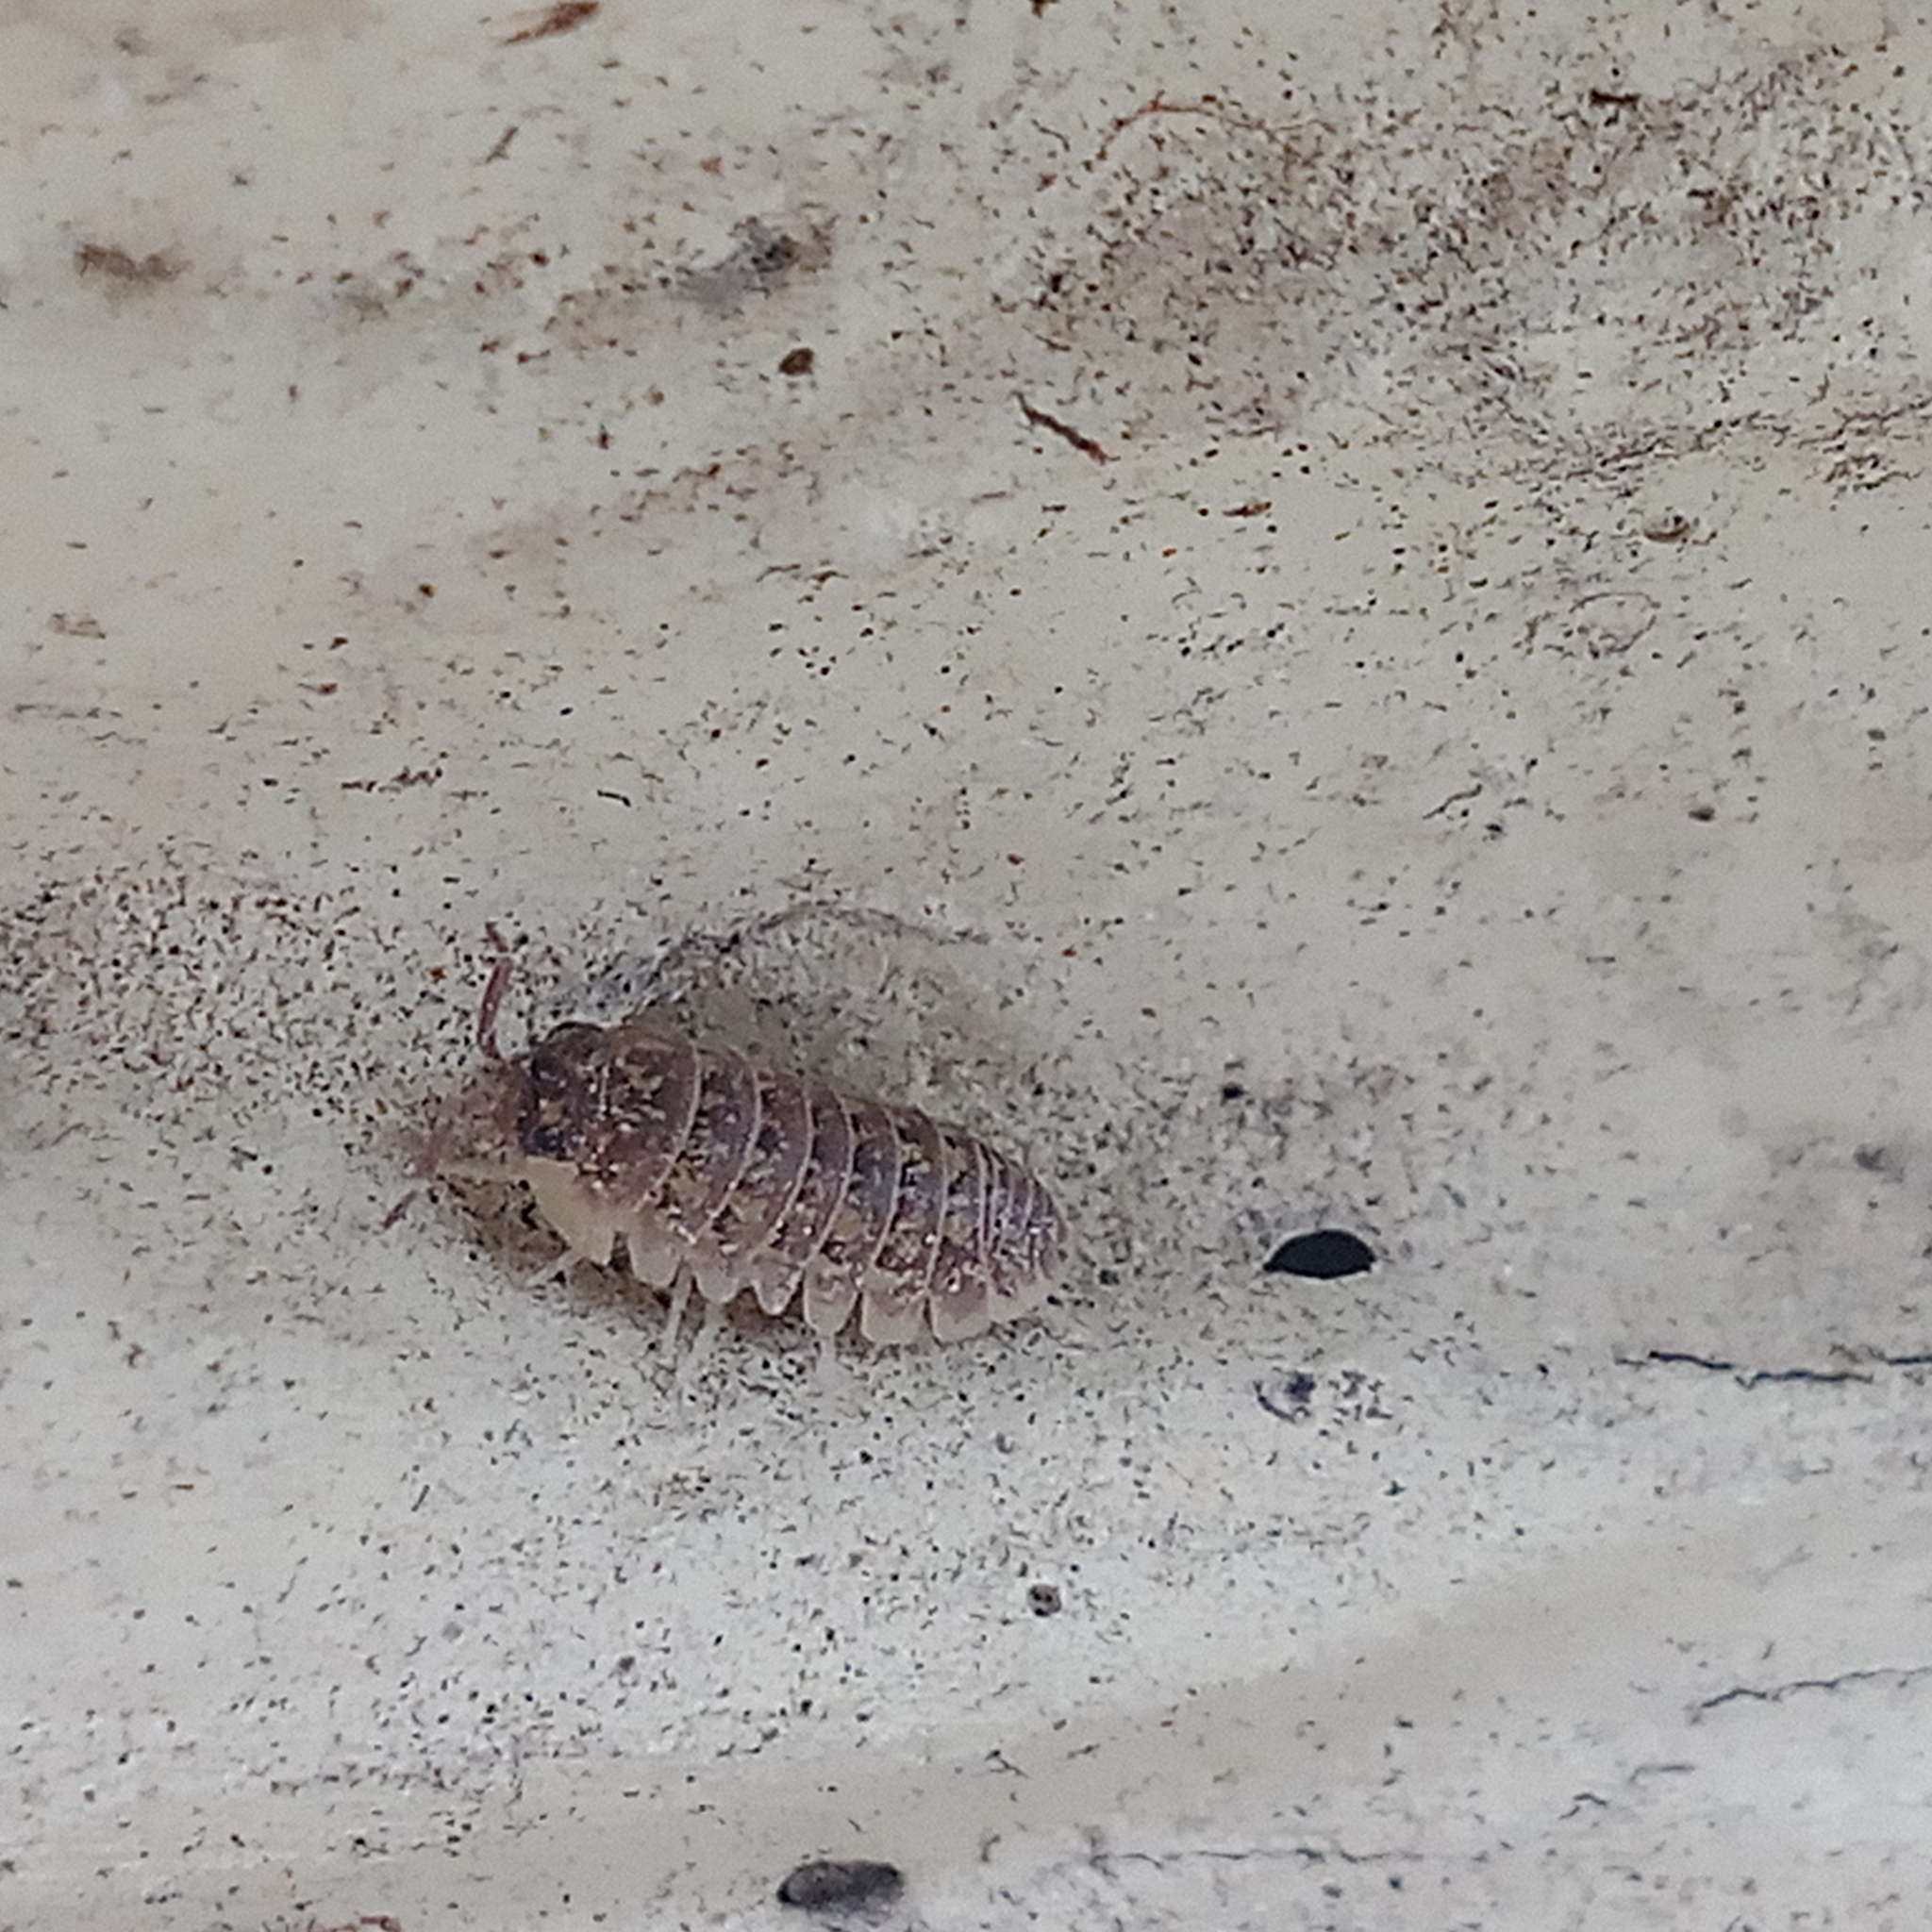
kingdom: Animalia
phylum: Arthropoda
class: Malacostraca
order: Isopoda
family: Armadillidiidae
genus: Armadillidium
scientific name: Armadillidium versicolor
